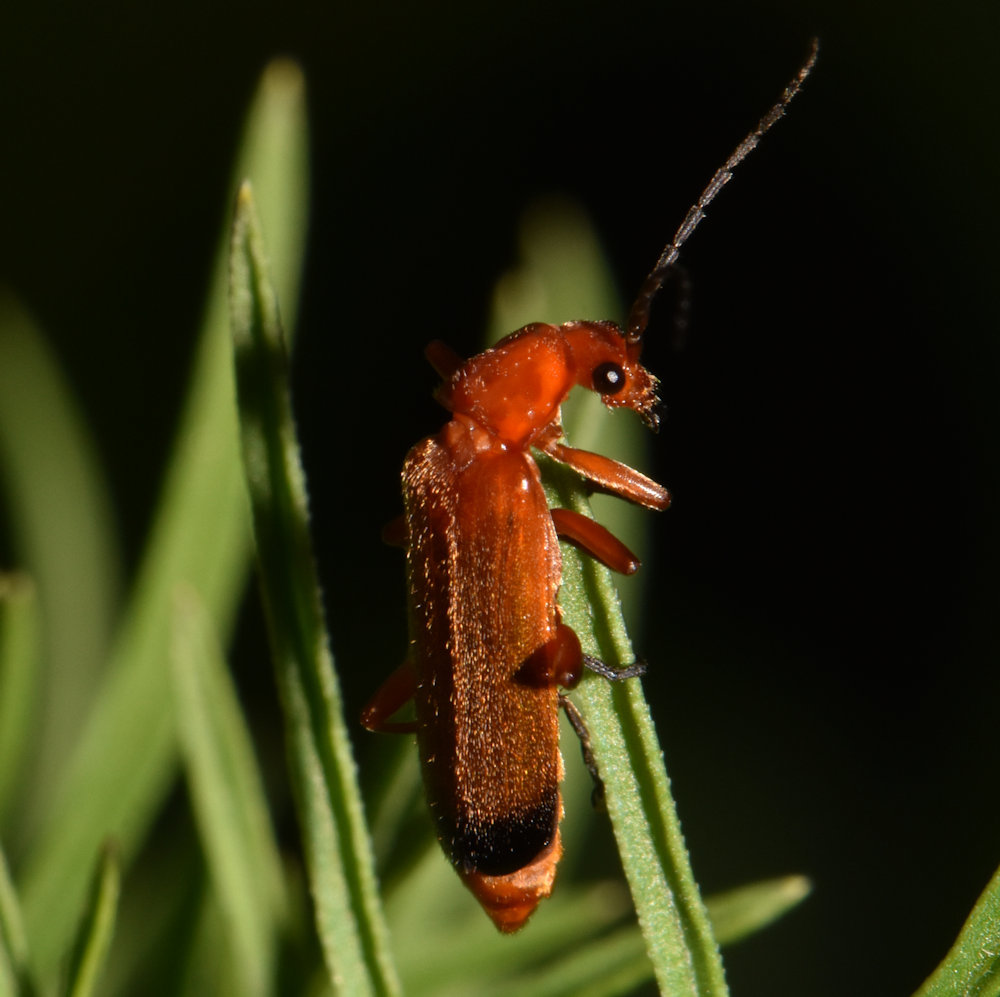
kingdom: Animalia
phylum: Arthropoda
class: Insecta
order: Coleoptera
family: Cantharidae
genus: Rhagonycha
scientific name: Rhagonycha fulva
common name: Common red soldier beetle
